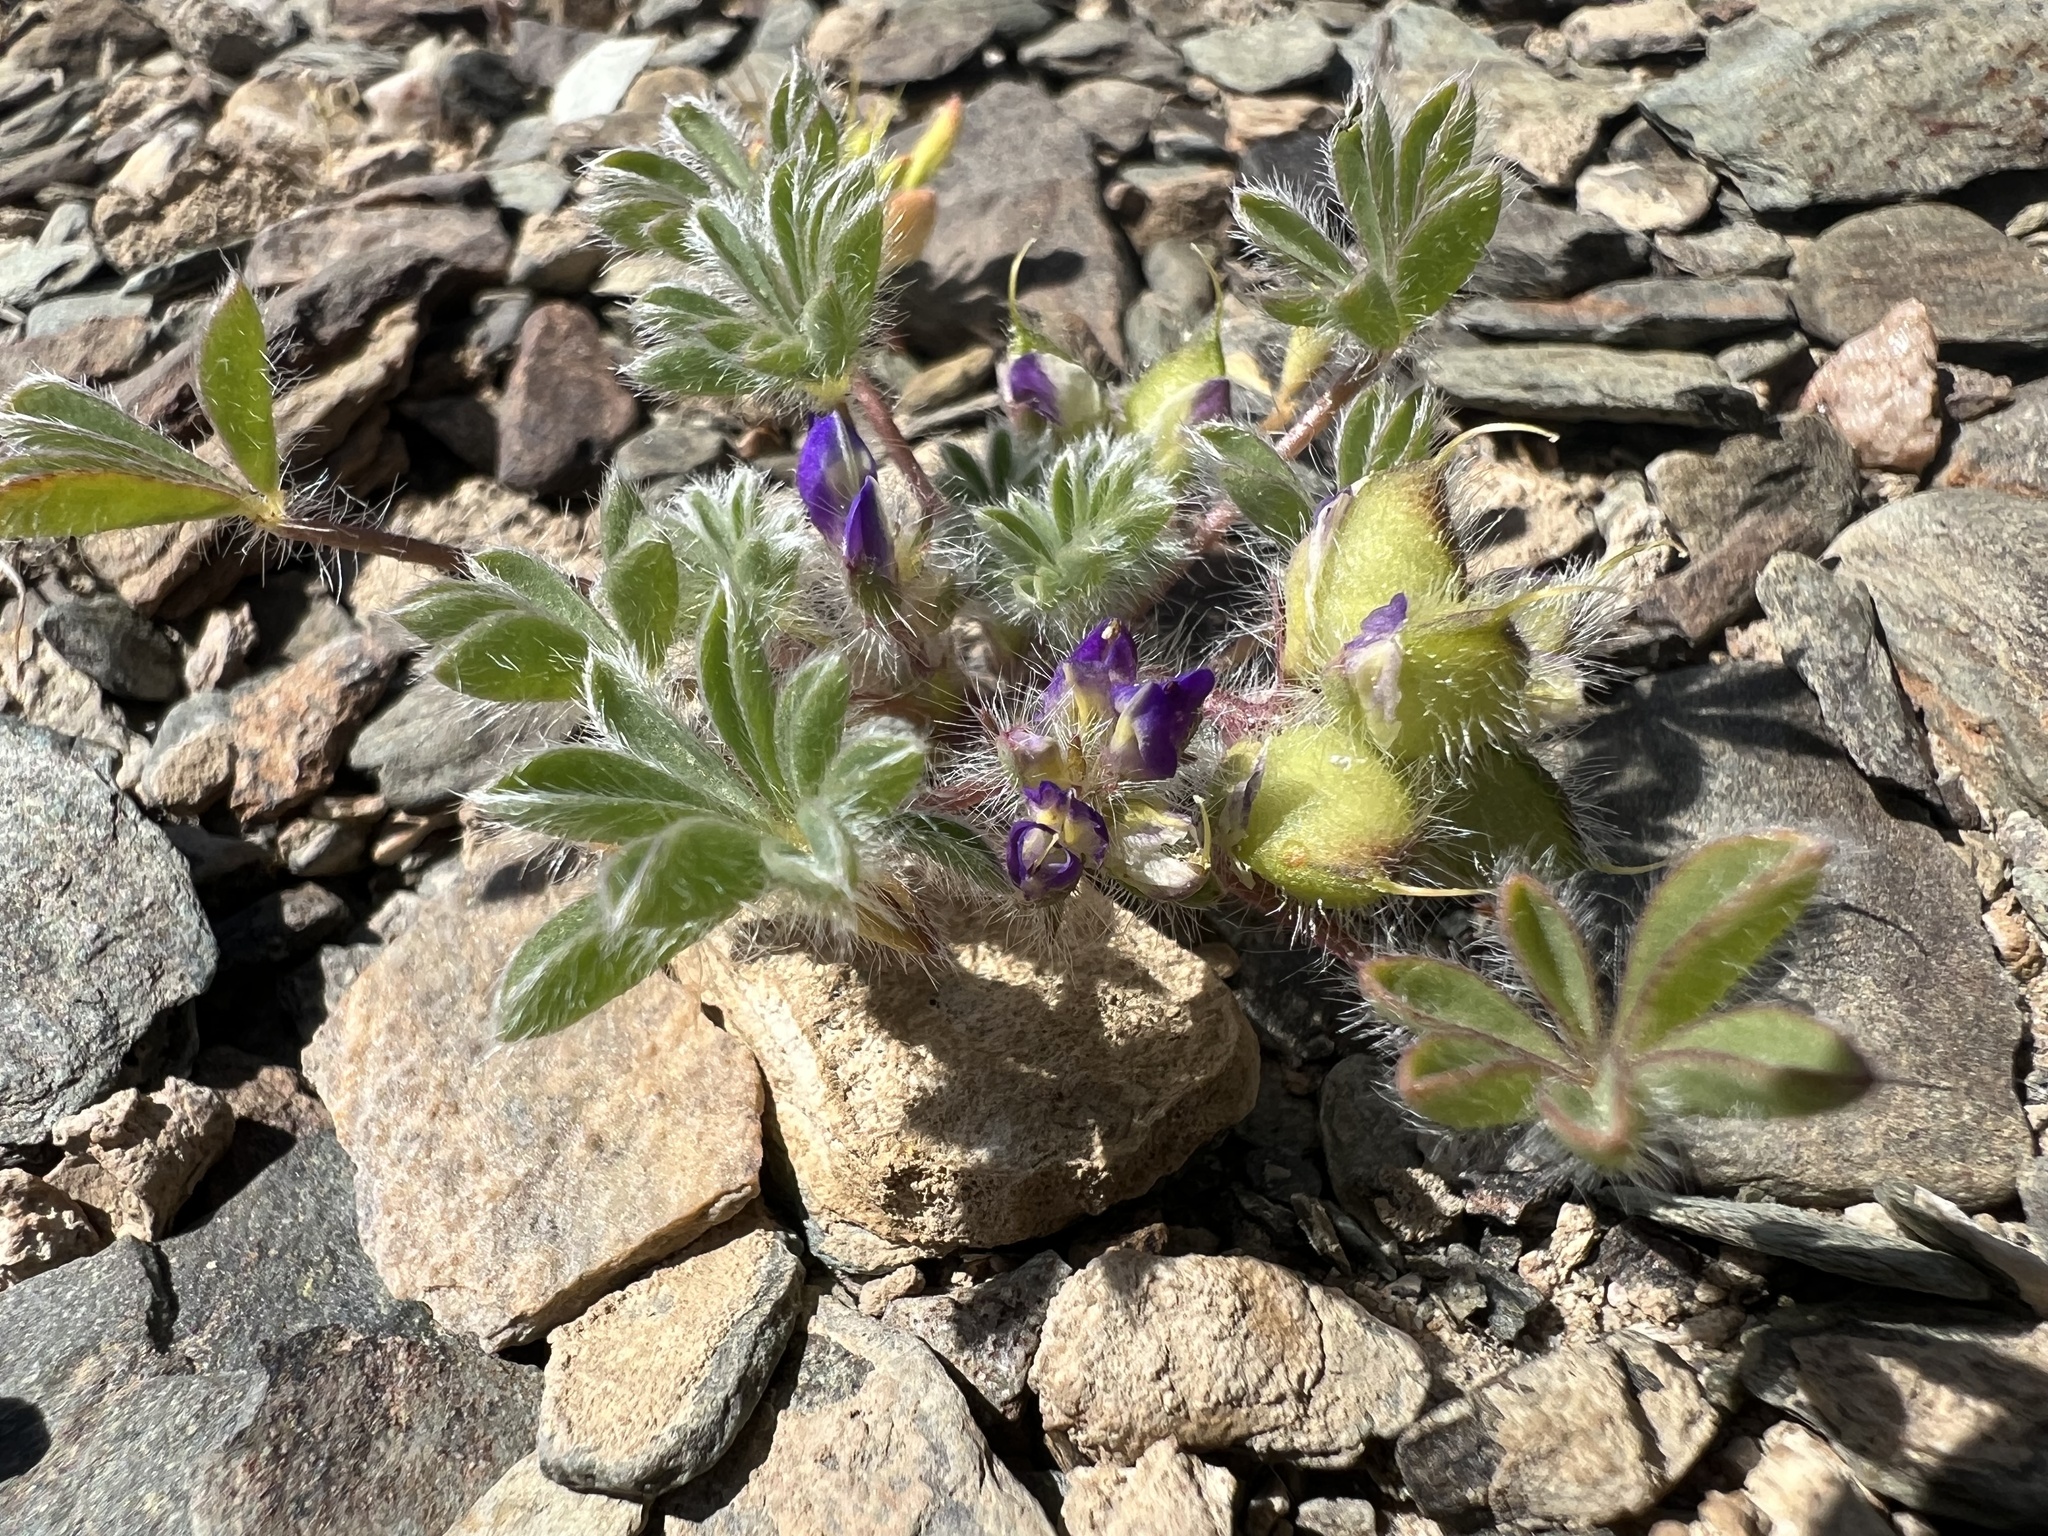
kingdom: Plantae
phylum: Tracheophyta
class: Magnoliopsida
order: Fabales
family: Fabaceae
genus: Lupinus
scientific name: Lupinus brevicaulis
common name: Sand lupine
